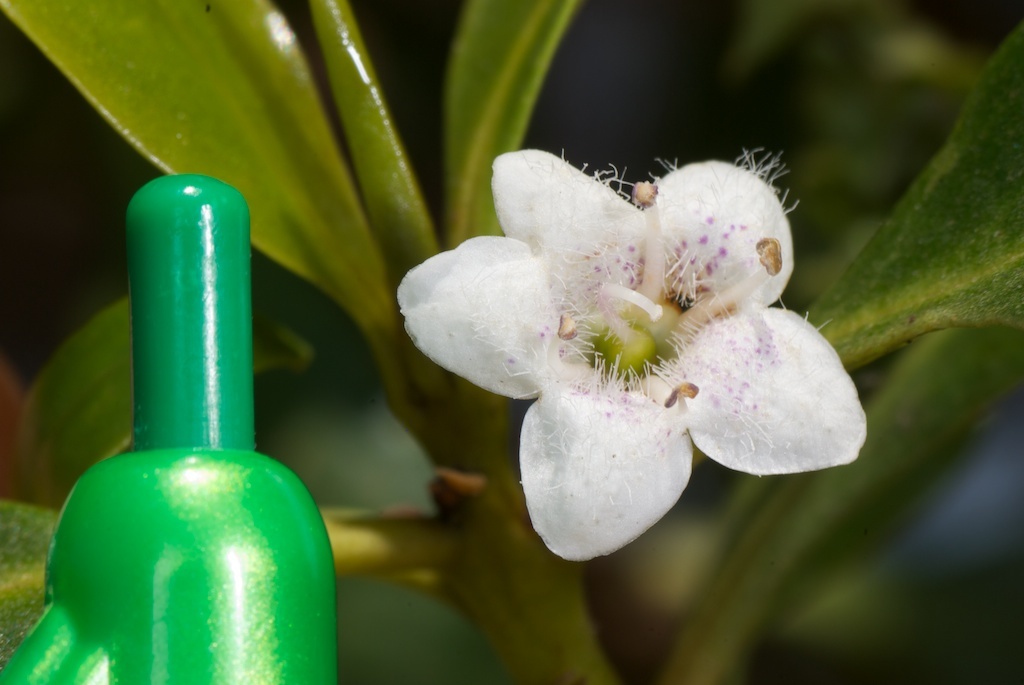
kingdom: Plantae
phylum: Tracheophyta
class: Magnoliopsida
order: Lamiales
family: Scrophulariaceae
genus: Myoporum
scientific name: Myoporum laetum
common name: Ngaio tree
